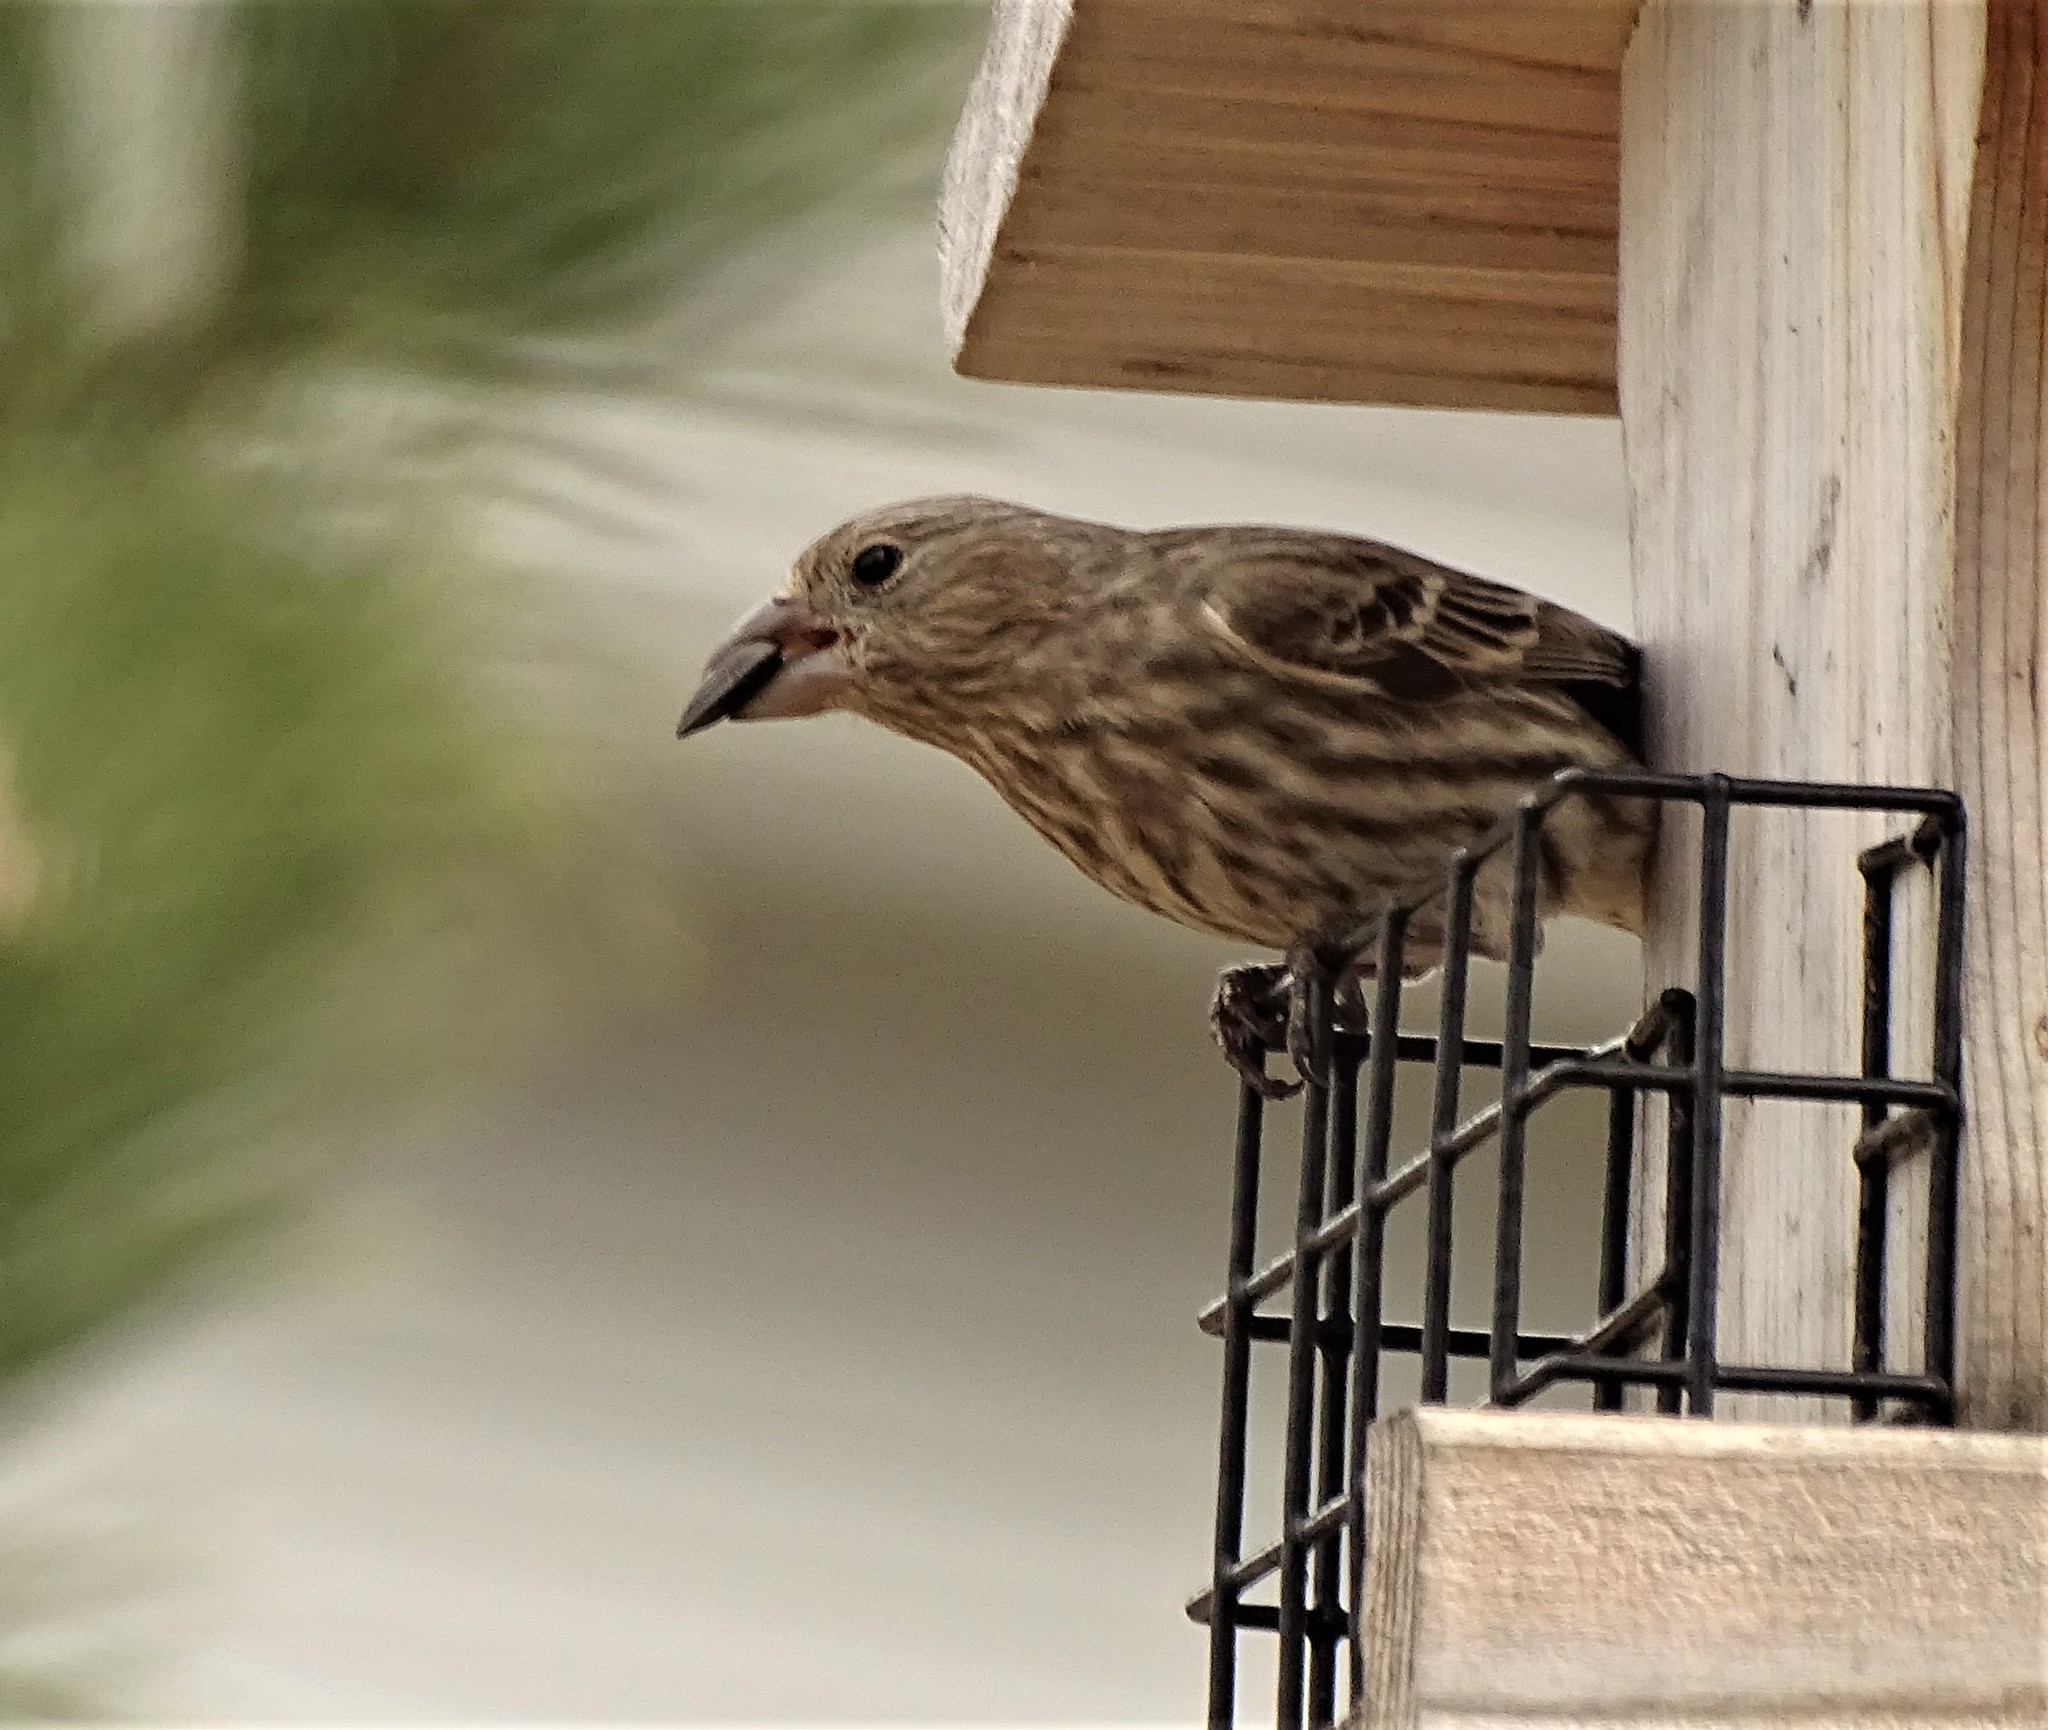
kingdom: Animalia
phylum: Chordata
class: Aves
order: Passeriformes
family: Fringillidae
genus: Haemorhous
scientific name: Haemorhous mexicanus
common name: House finch
